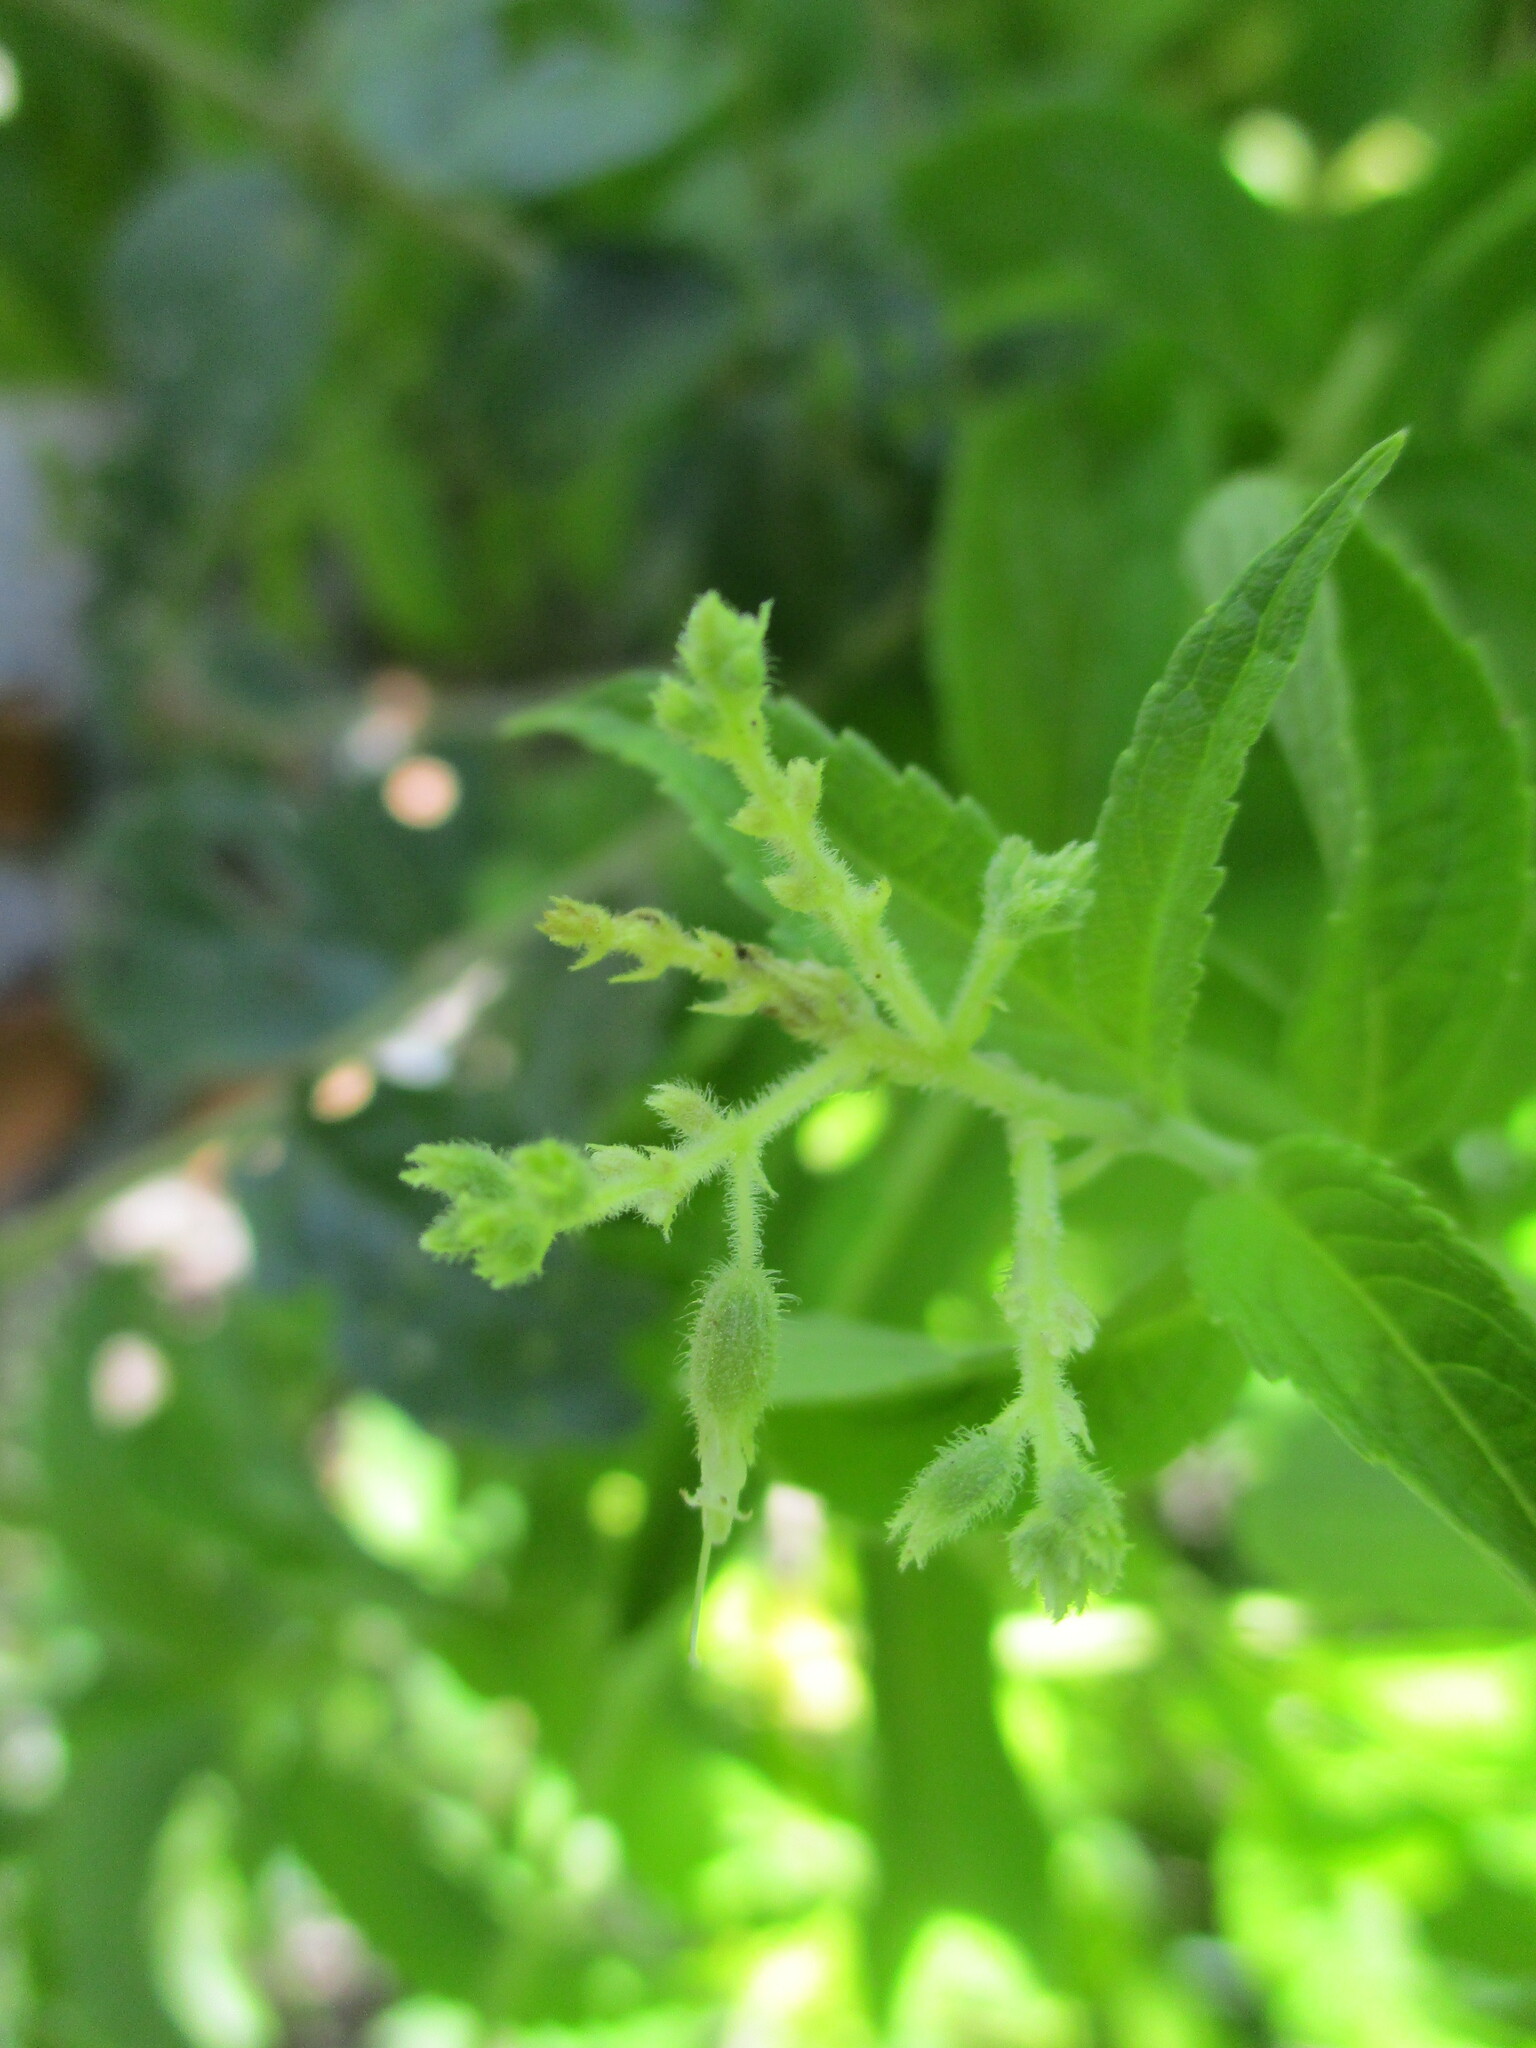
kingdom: Plantae
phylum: Tracheophyta
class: Magnoliopsida
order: Lamiales
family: Lamiaceae
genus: Hoslundia
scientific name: Hoslundia opposita
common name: Kamyuye
